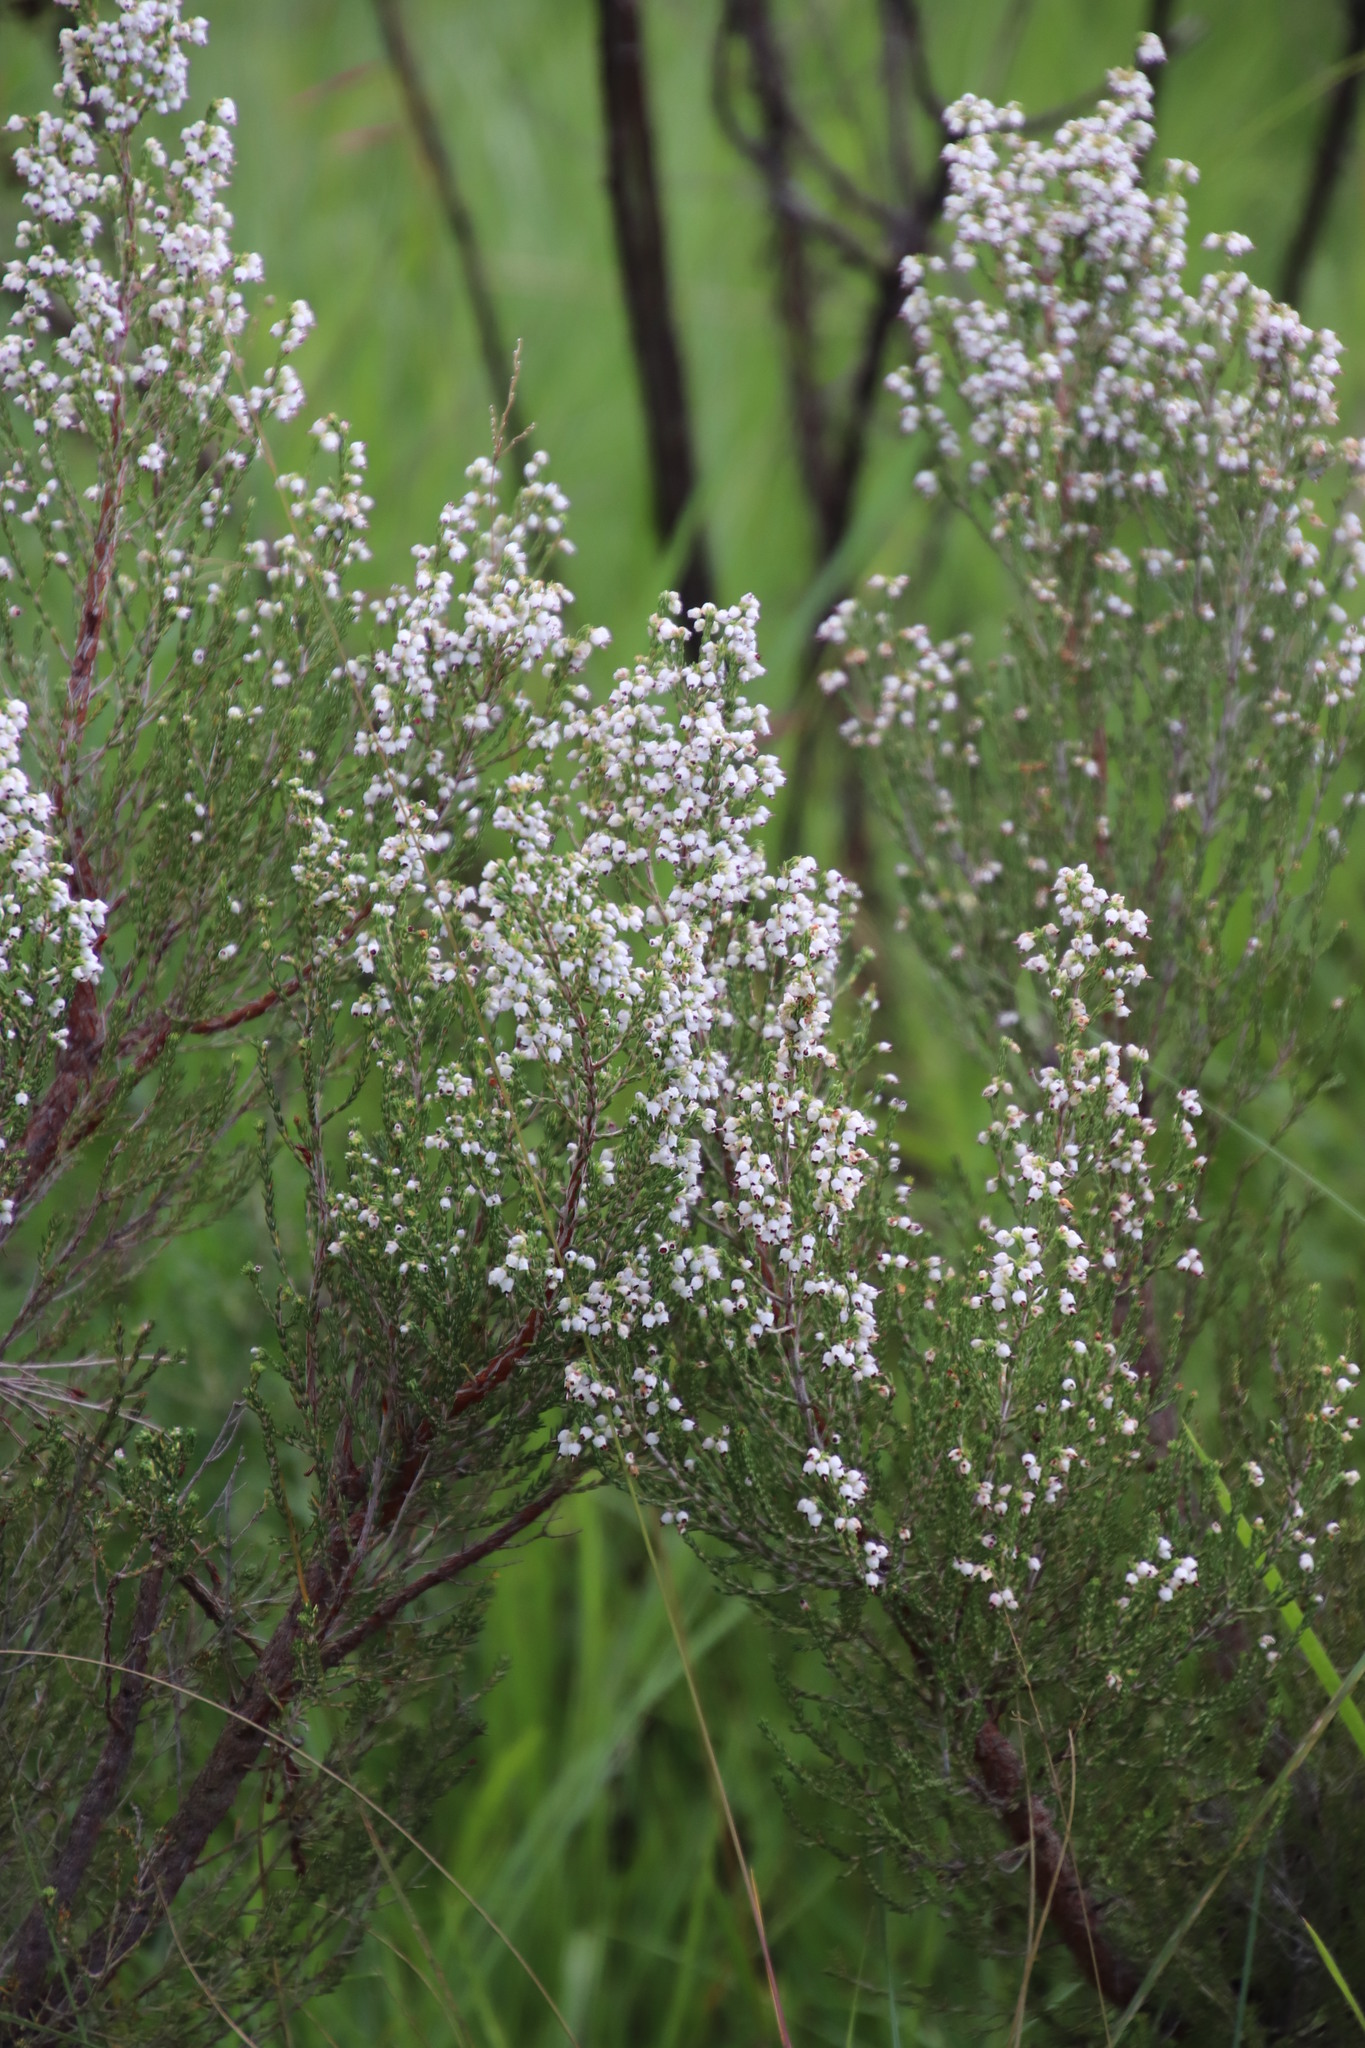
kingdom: Plantae
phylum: Tracheophyta
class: Magnoliopsida
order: Ericales
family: Ericaceae
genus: Erica
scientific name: Erica drakensbergensis
